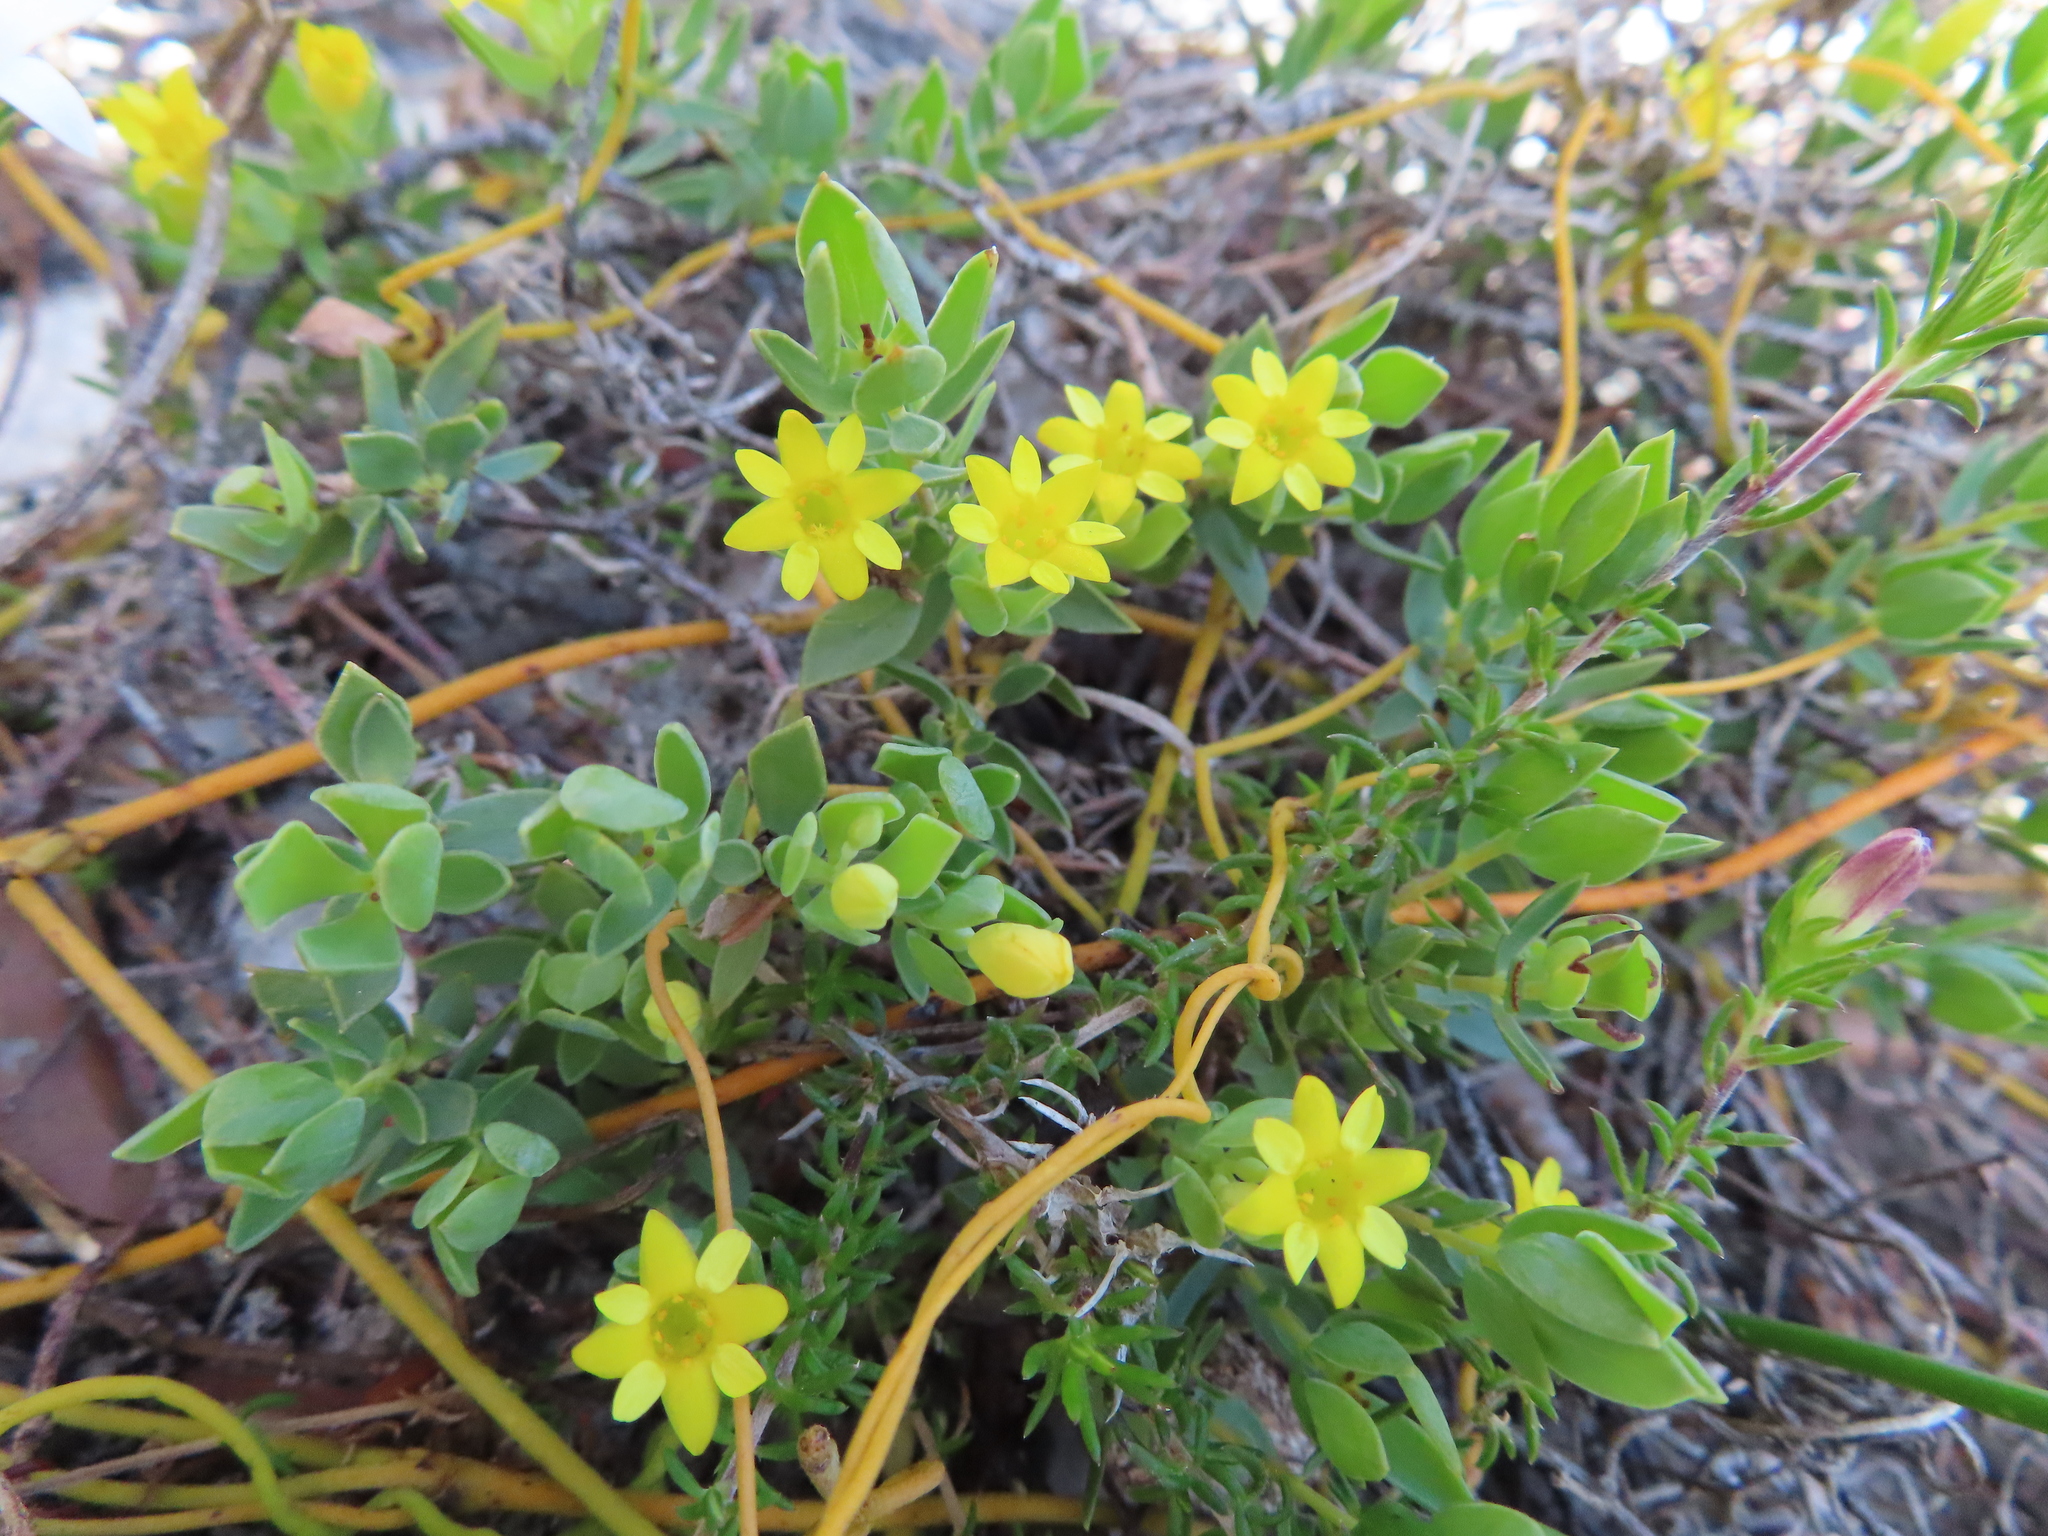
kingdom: Plantae
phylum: Tracheophyta
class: Magnoliopsida
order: Malvales
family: Thymelaeaceae
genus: Gnidia
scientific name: Gnidia juniperifolia
